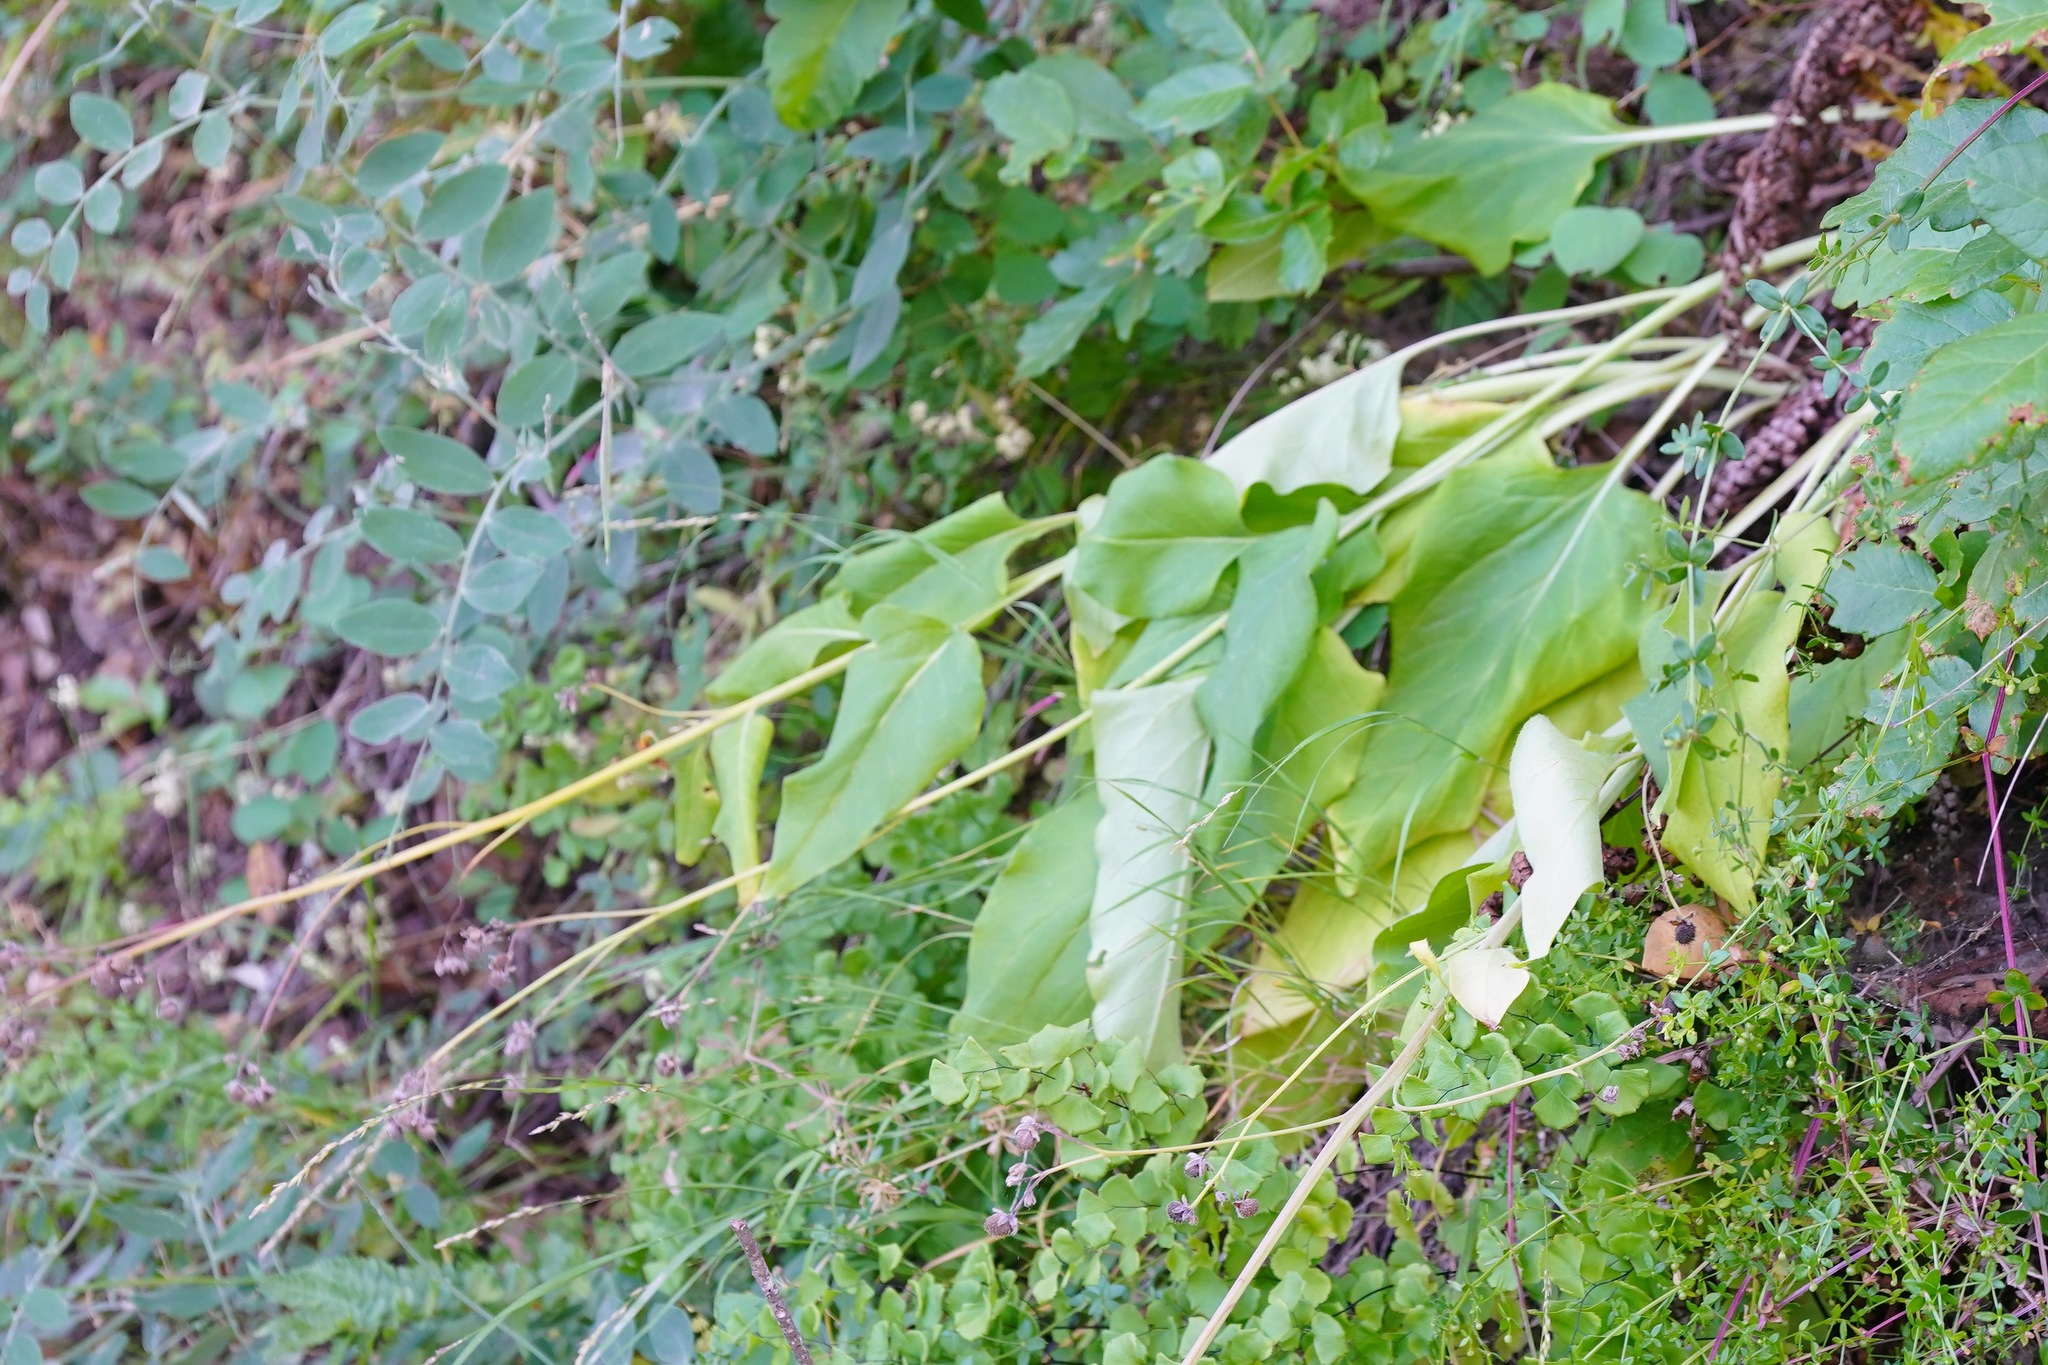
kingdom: Plantae
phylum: Tracheophyta
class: Magnoliopsida
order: Boraginales
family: Boraginaceae
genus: Adelinia
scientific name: Adelinia grande
